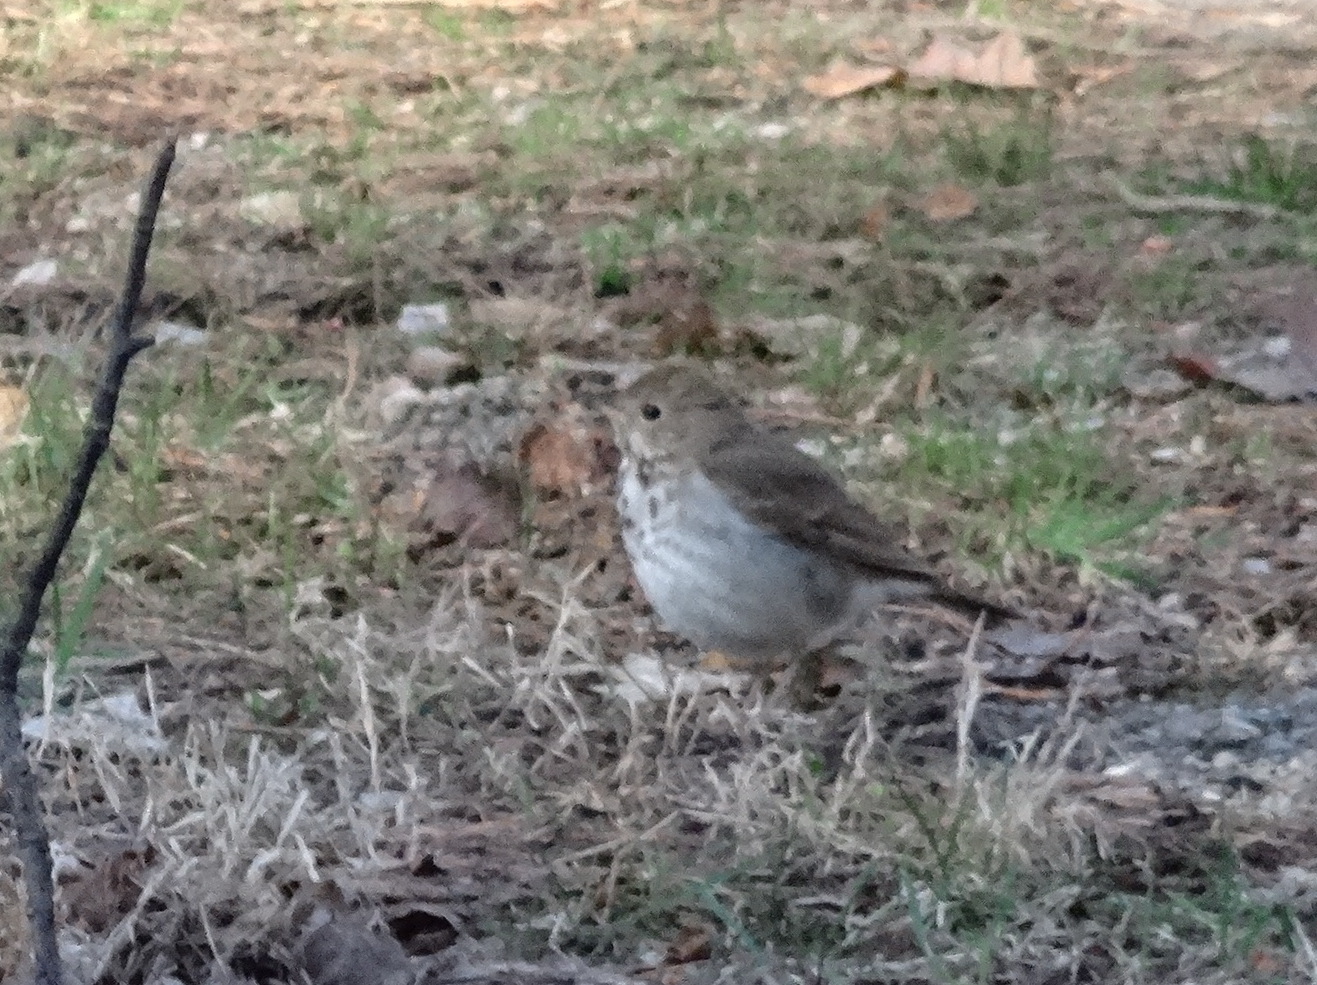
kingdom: Animalia
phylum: Chordata
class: Aves
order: Passeriformes
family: Turdidae
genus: Catharus
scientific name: Catharus guttatus
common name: Hermit thrush
